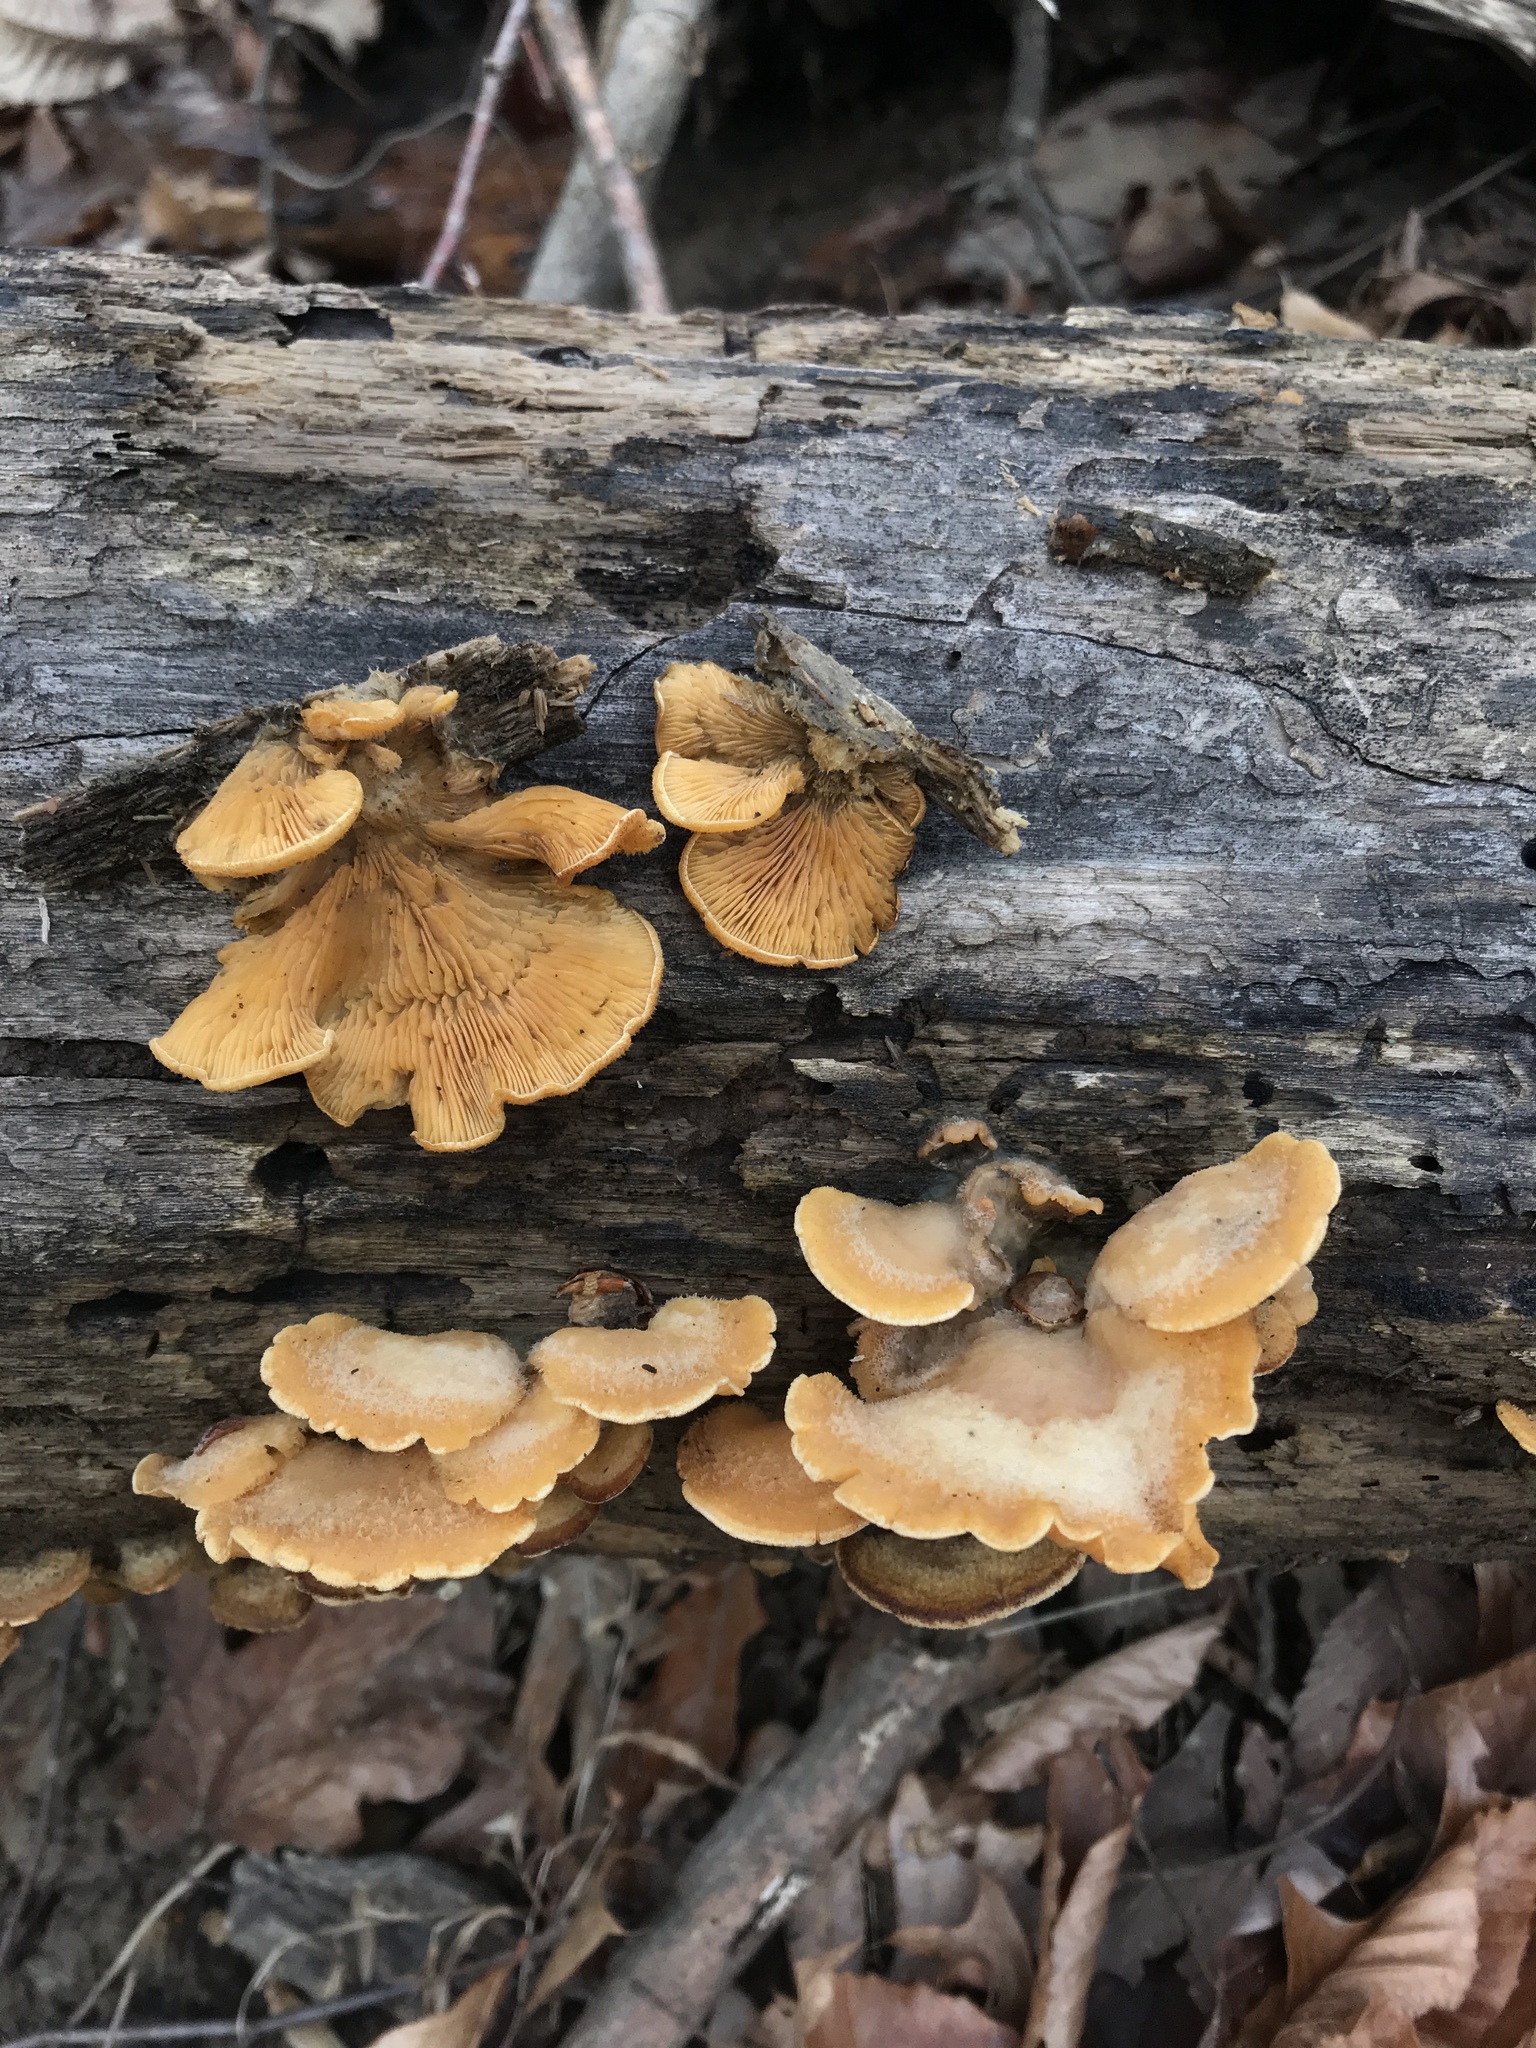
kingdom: Fungi
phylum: Basidiomycota
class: Agaricomycetes
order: Agaricales
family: Phyllotopsidaceae
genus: Phyllotopsis
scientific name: Phyllotopsis nidulans
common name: Orange mock oyster
